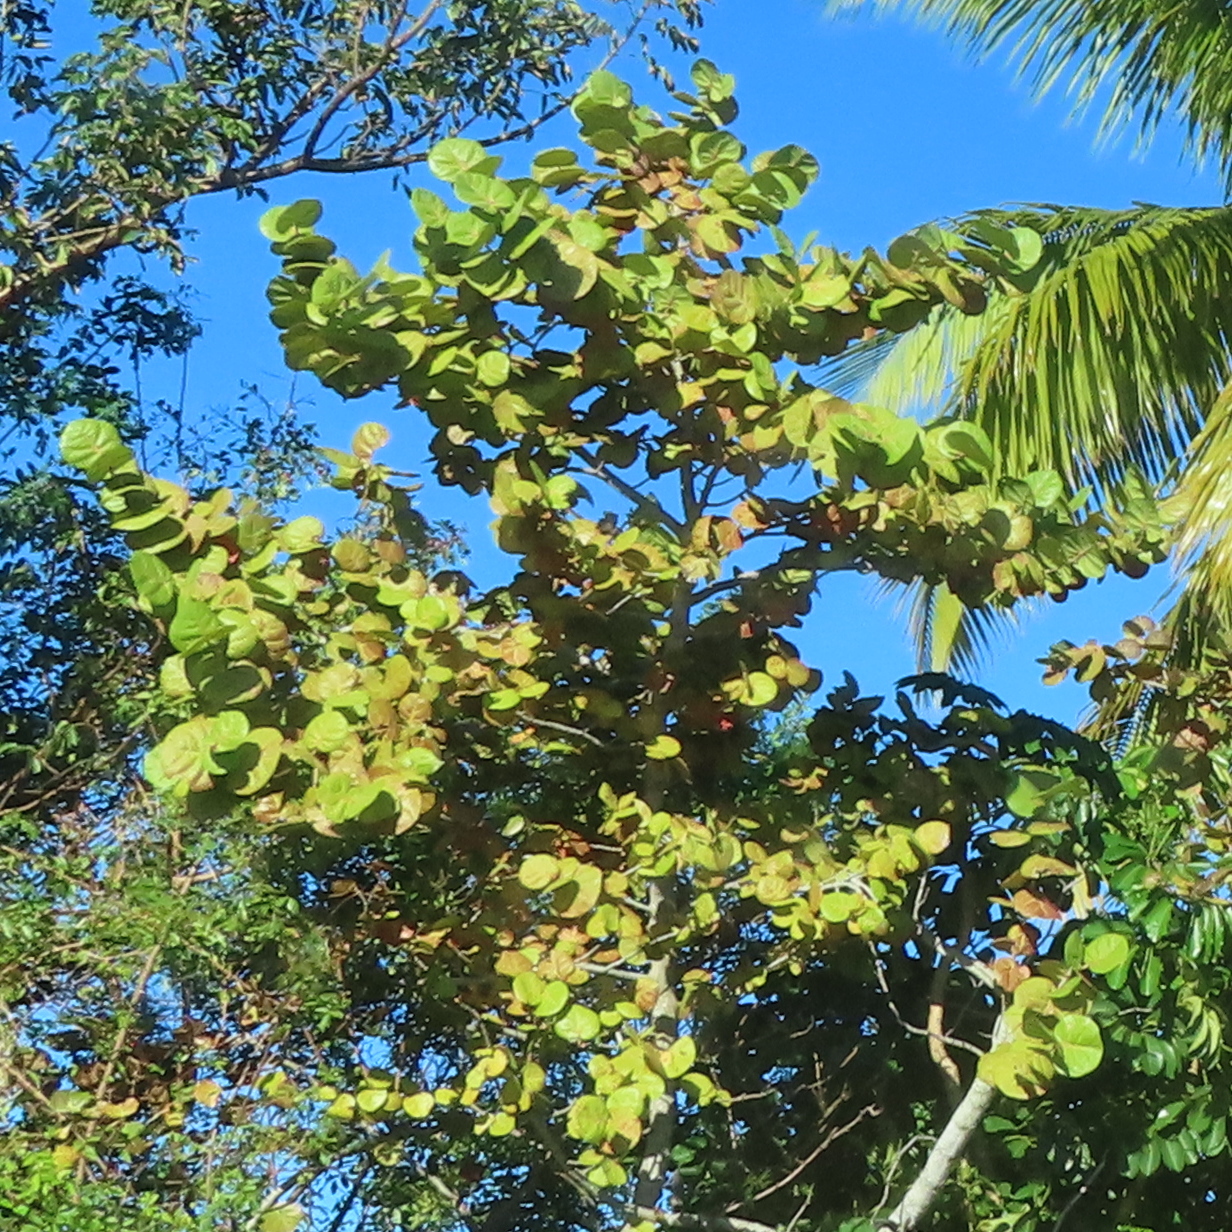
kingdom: Plantae
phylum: Tracheophyta
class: Magnoliopsida
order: Caryophyllales
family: Polygonaceae
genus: Coccoloba
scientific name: Coccoloba uvifera
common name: Seagrape
